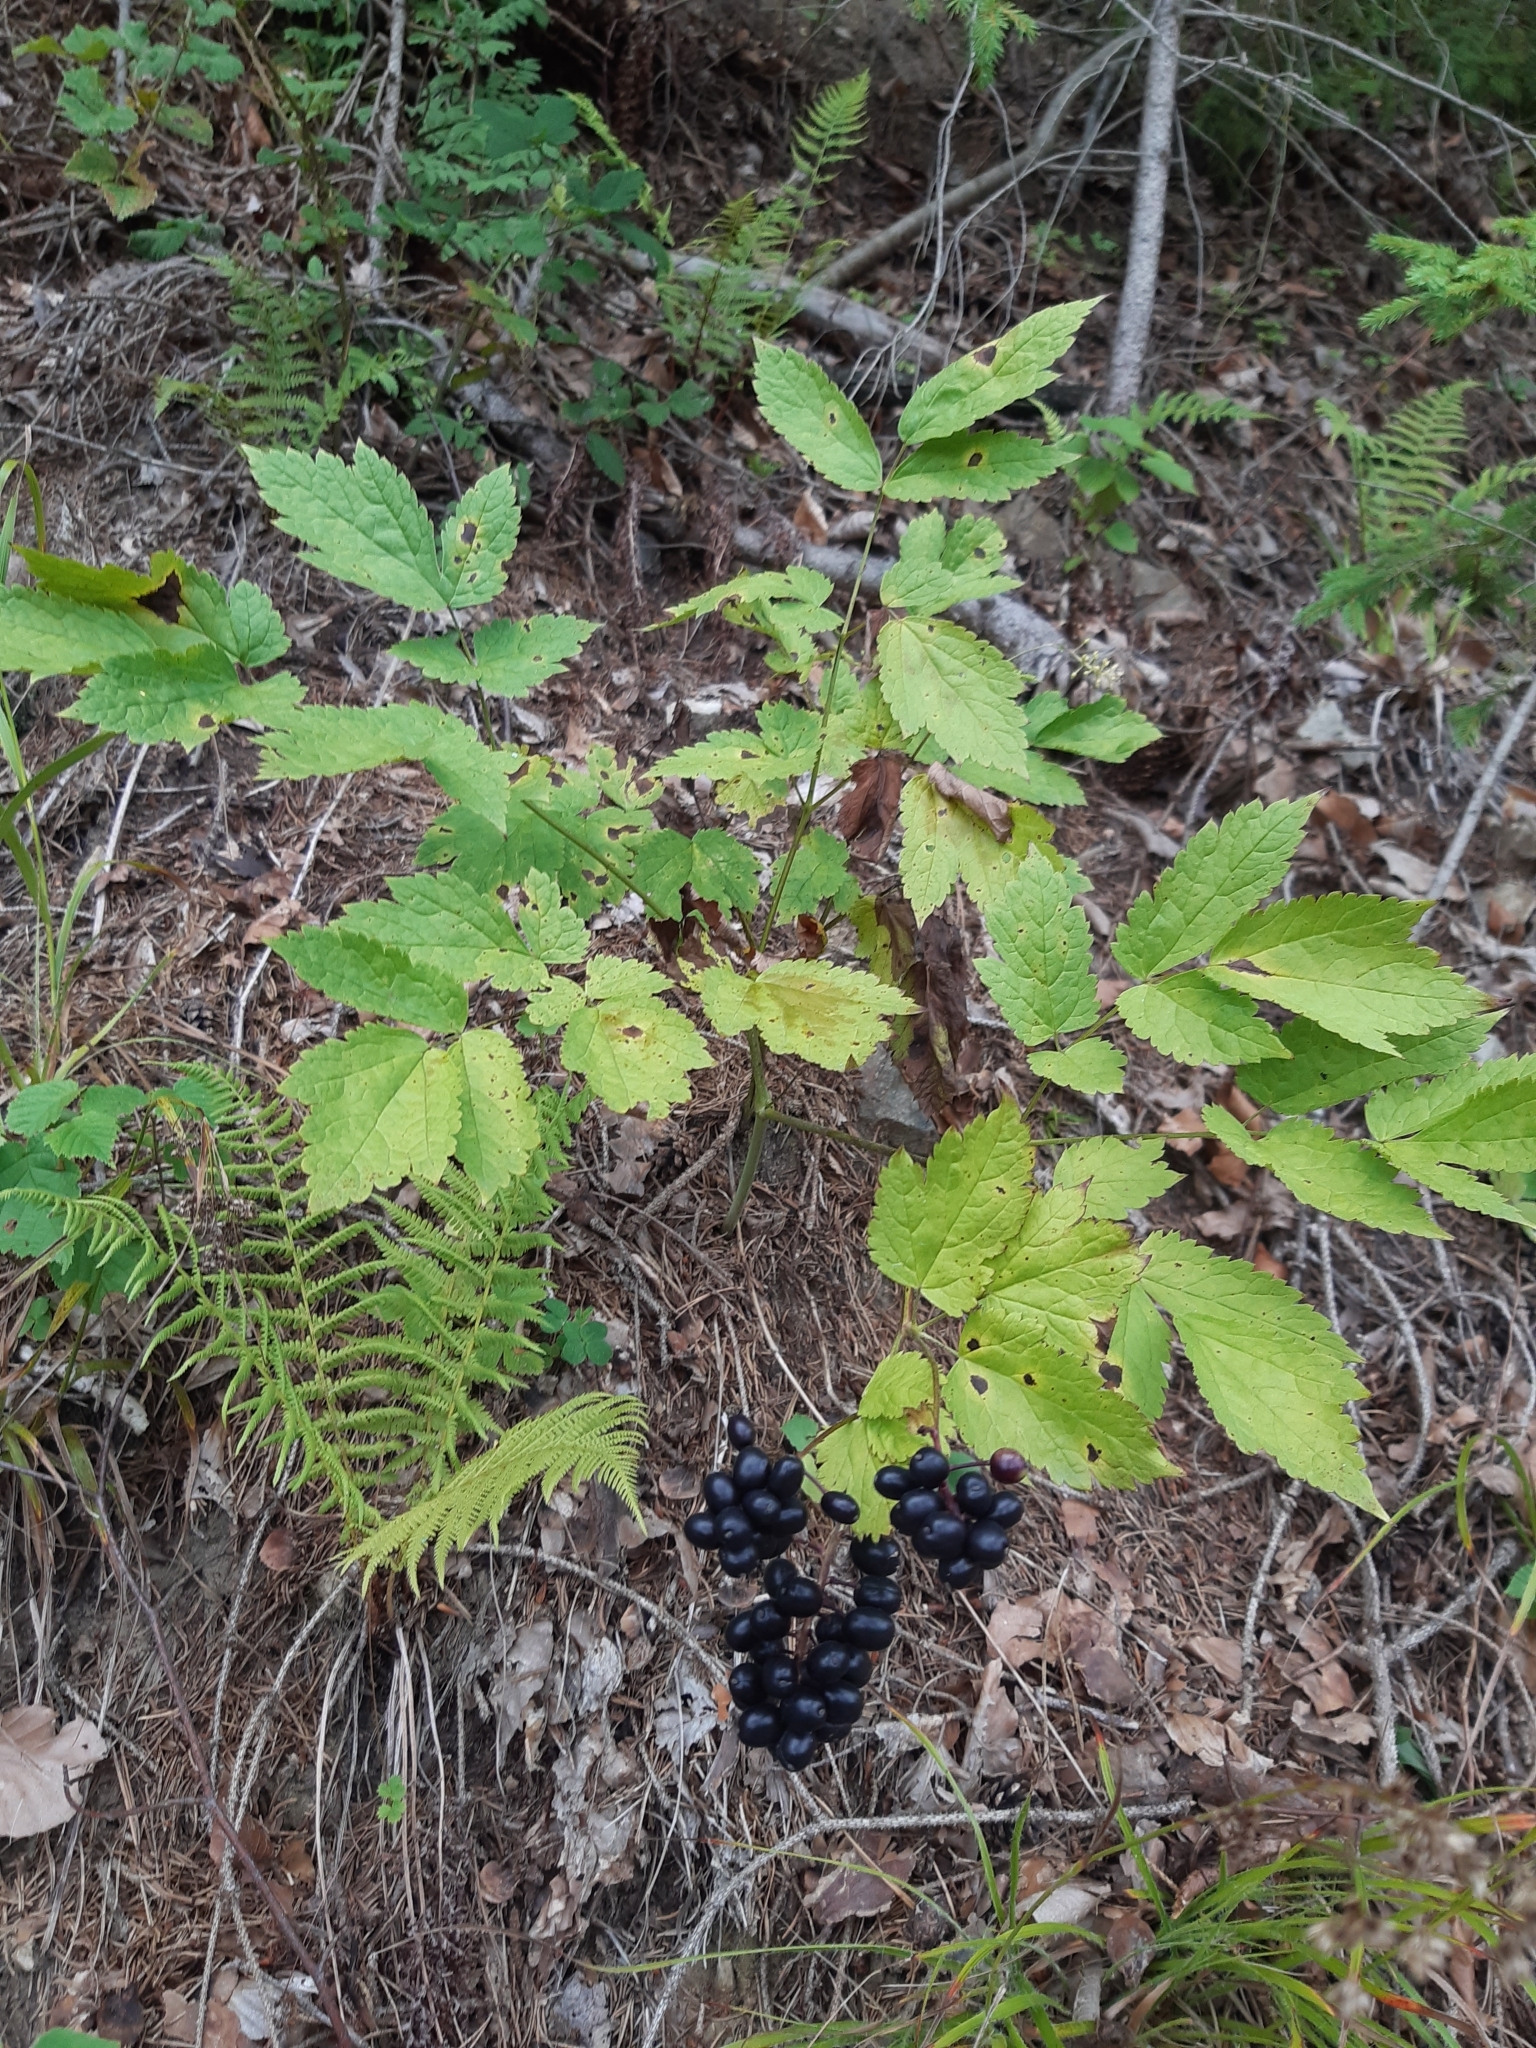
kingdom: Plantae
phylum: Tracheophyta
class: Magnoliopsida
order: Ranunculales
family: Ranunculaceae
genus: Actaea
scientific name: Actaea spicata
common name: Baneberry
